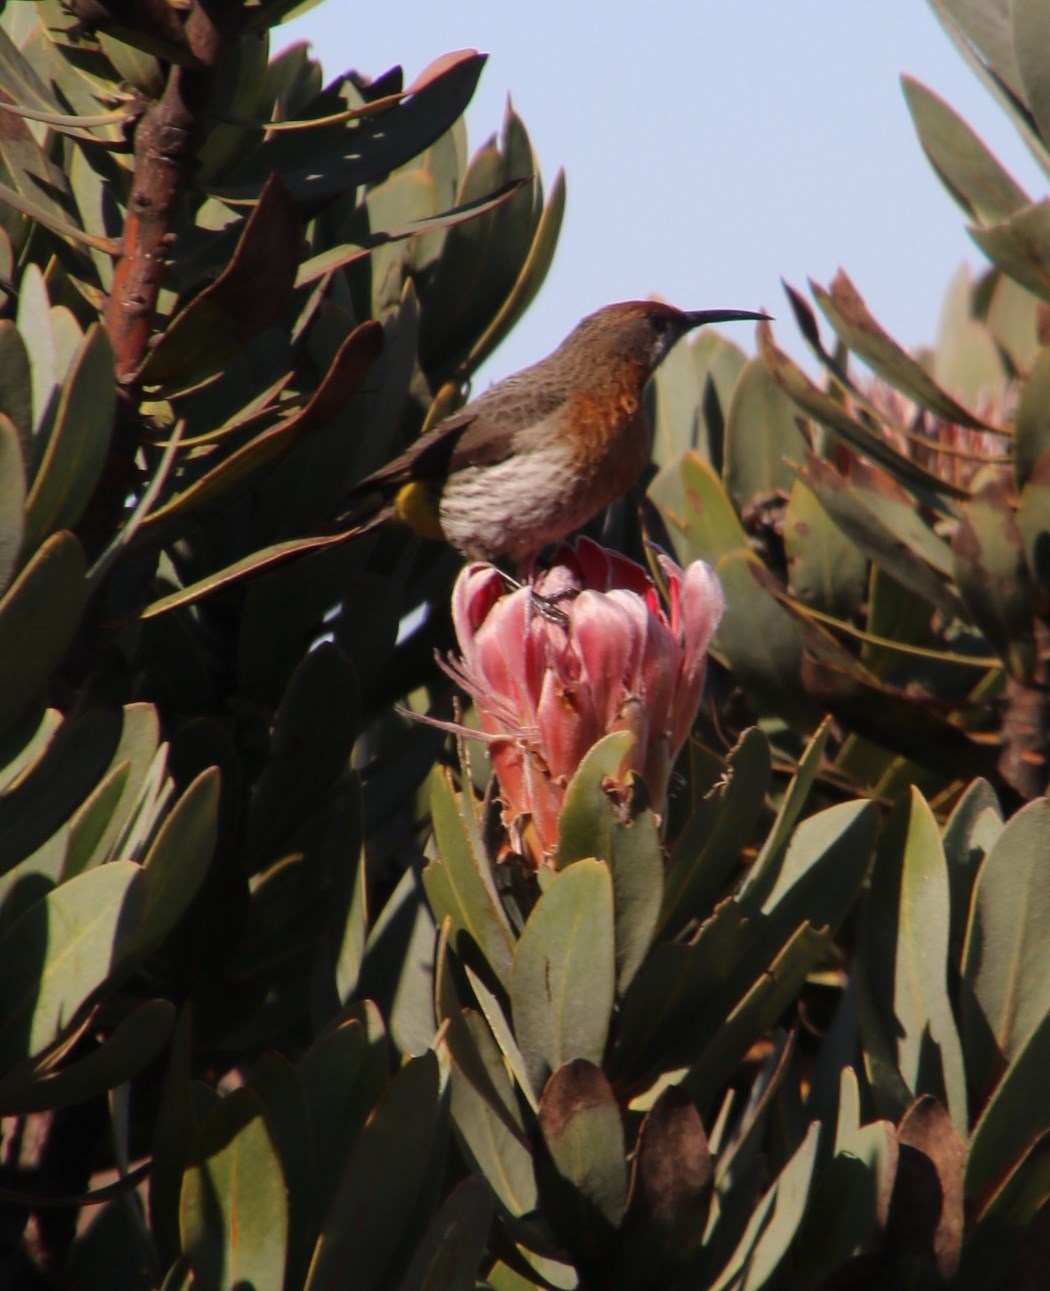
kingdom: Animalia
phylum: Chordata
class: Aves
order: Passeriformes
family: Promeropidae
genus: Promerops
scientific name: Promerops gurneyi
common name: Gurney's sugarbird
